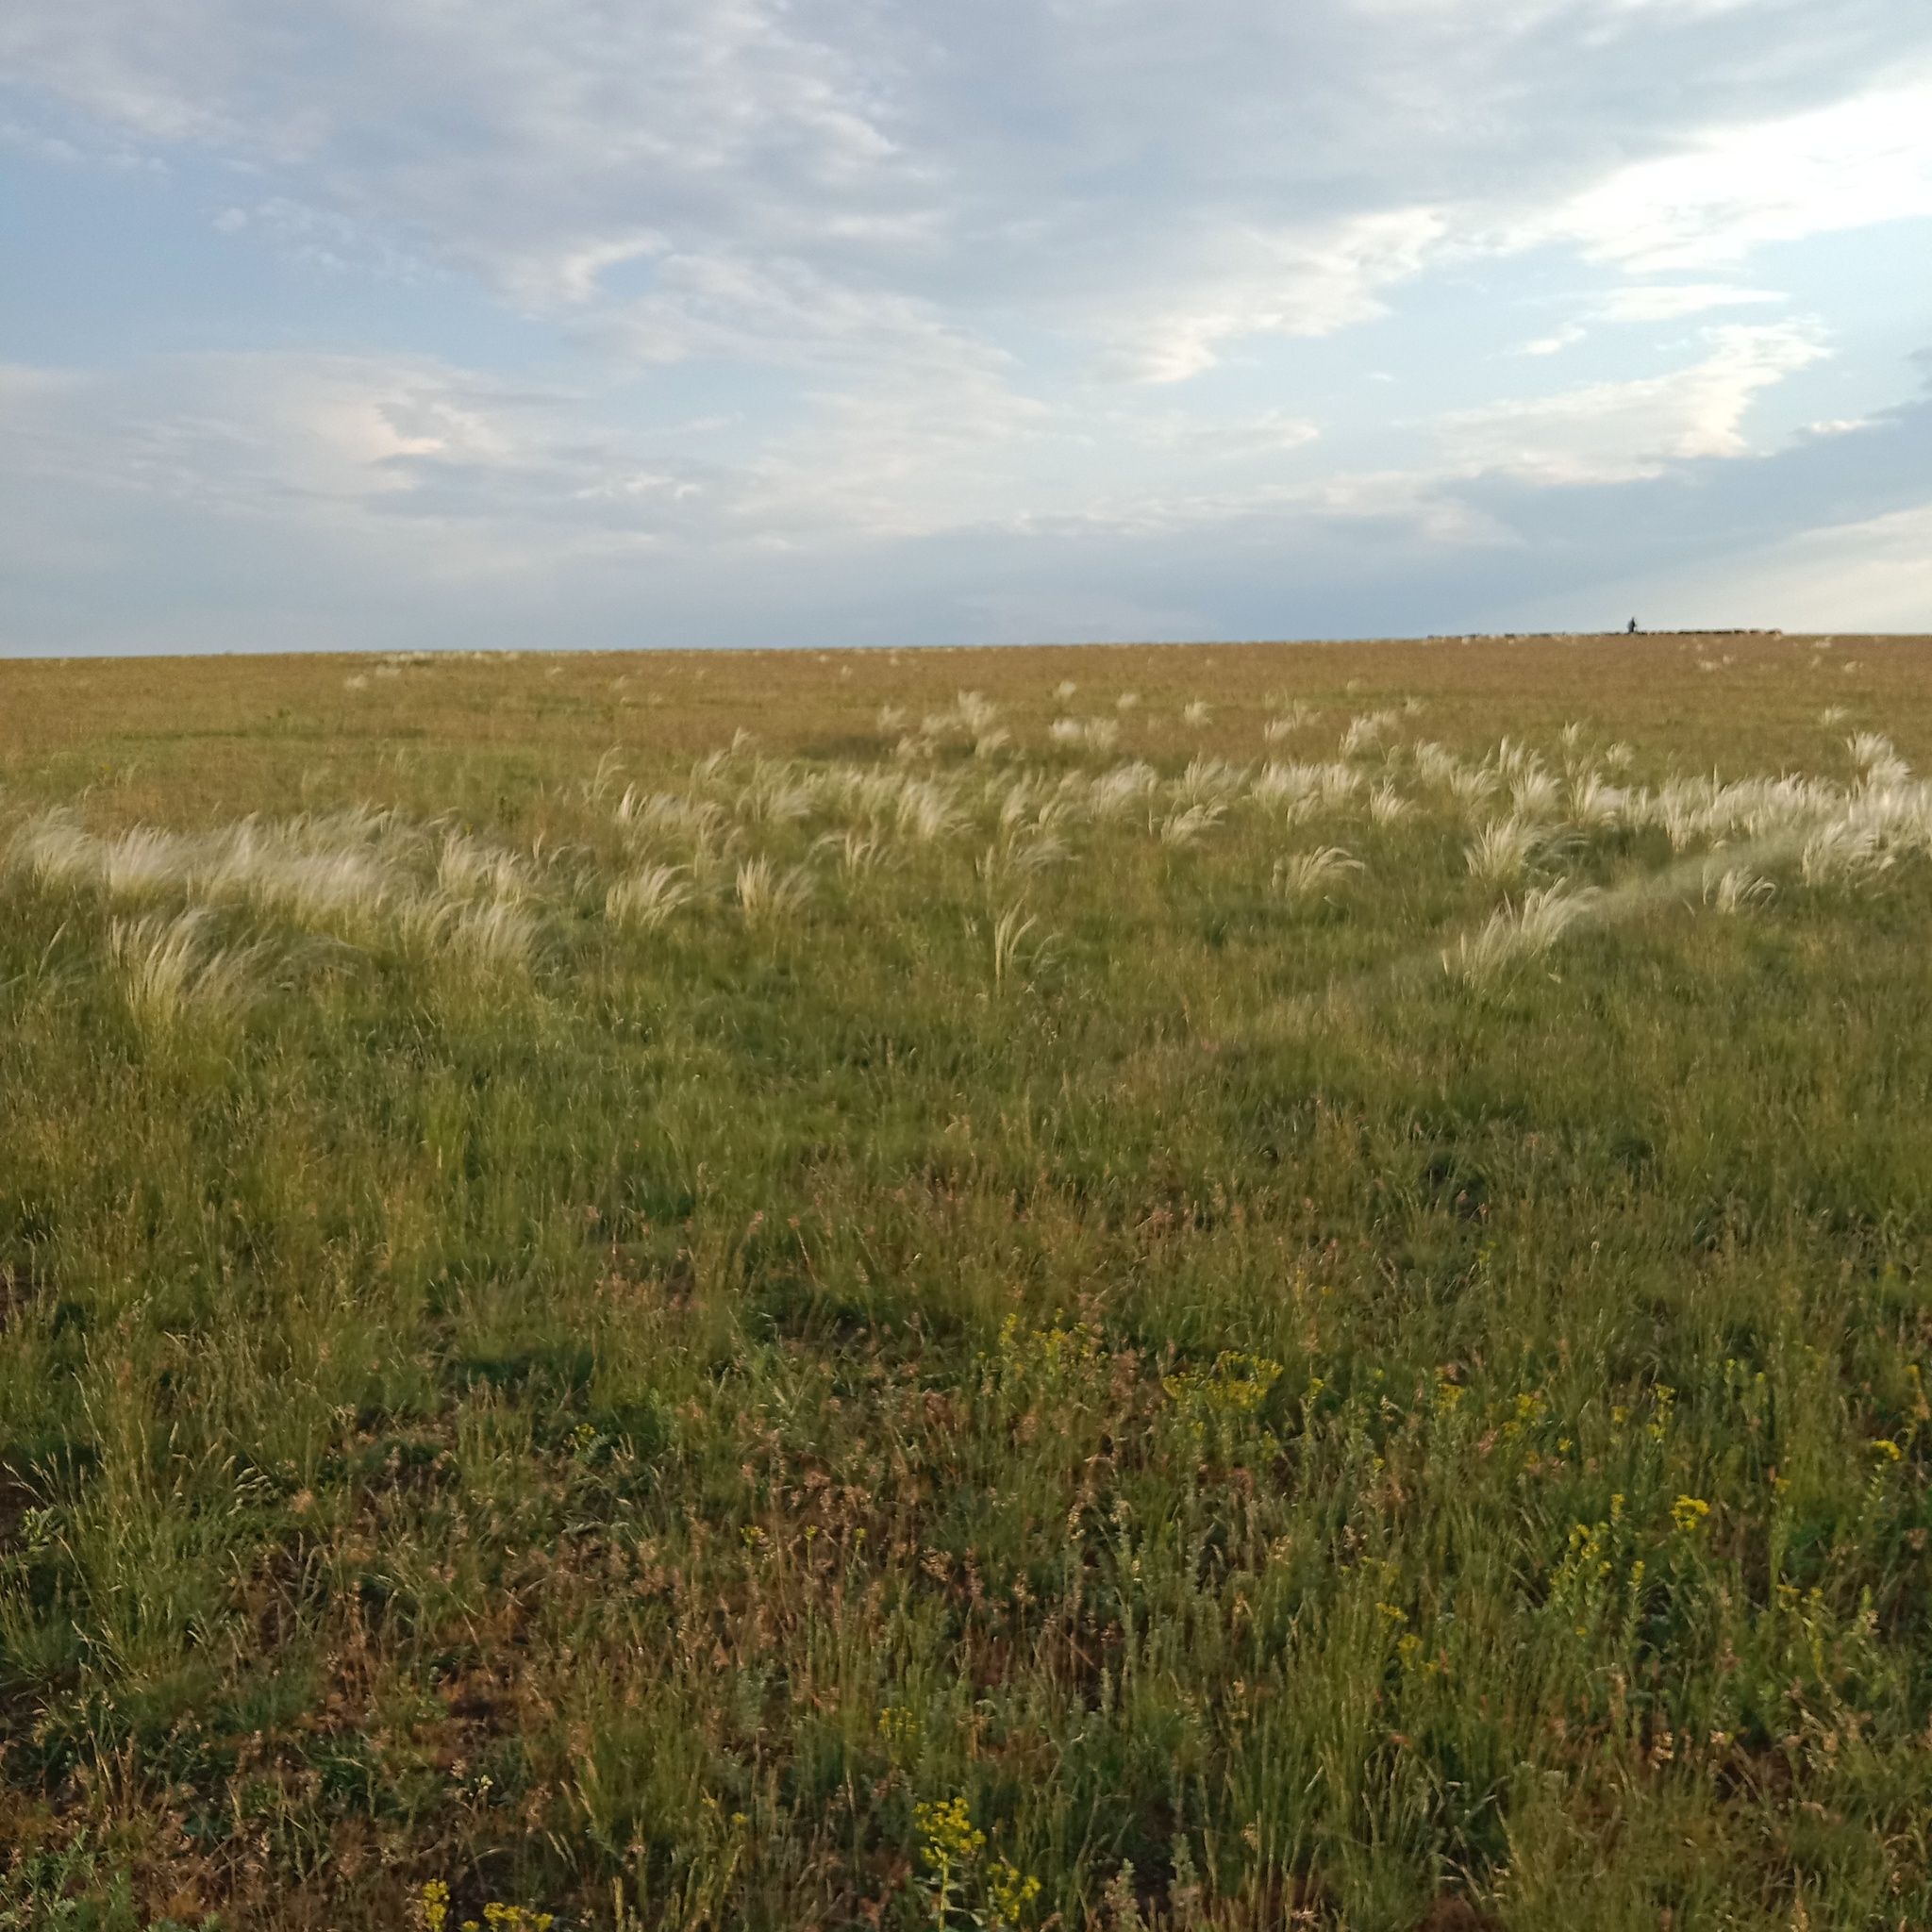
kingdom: Plantae
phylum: Tracheophyta
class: Liliopsida
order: Poales
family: Poaceae
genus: Stipa
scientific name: Stipa lessingiana
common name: Needle grass
